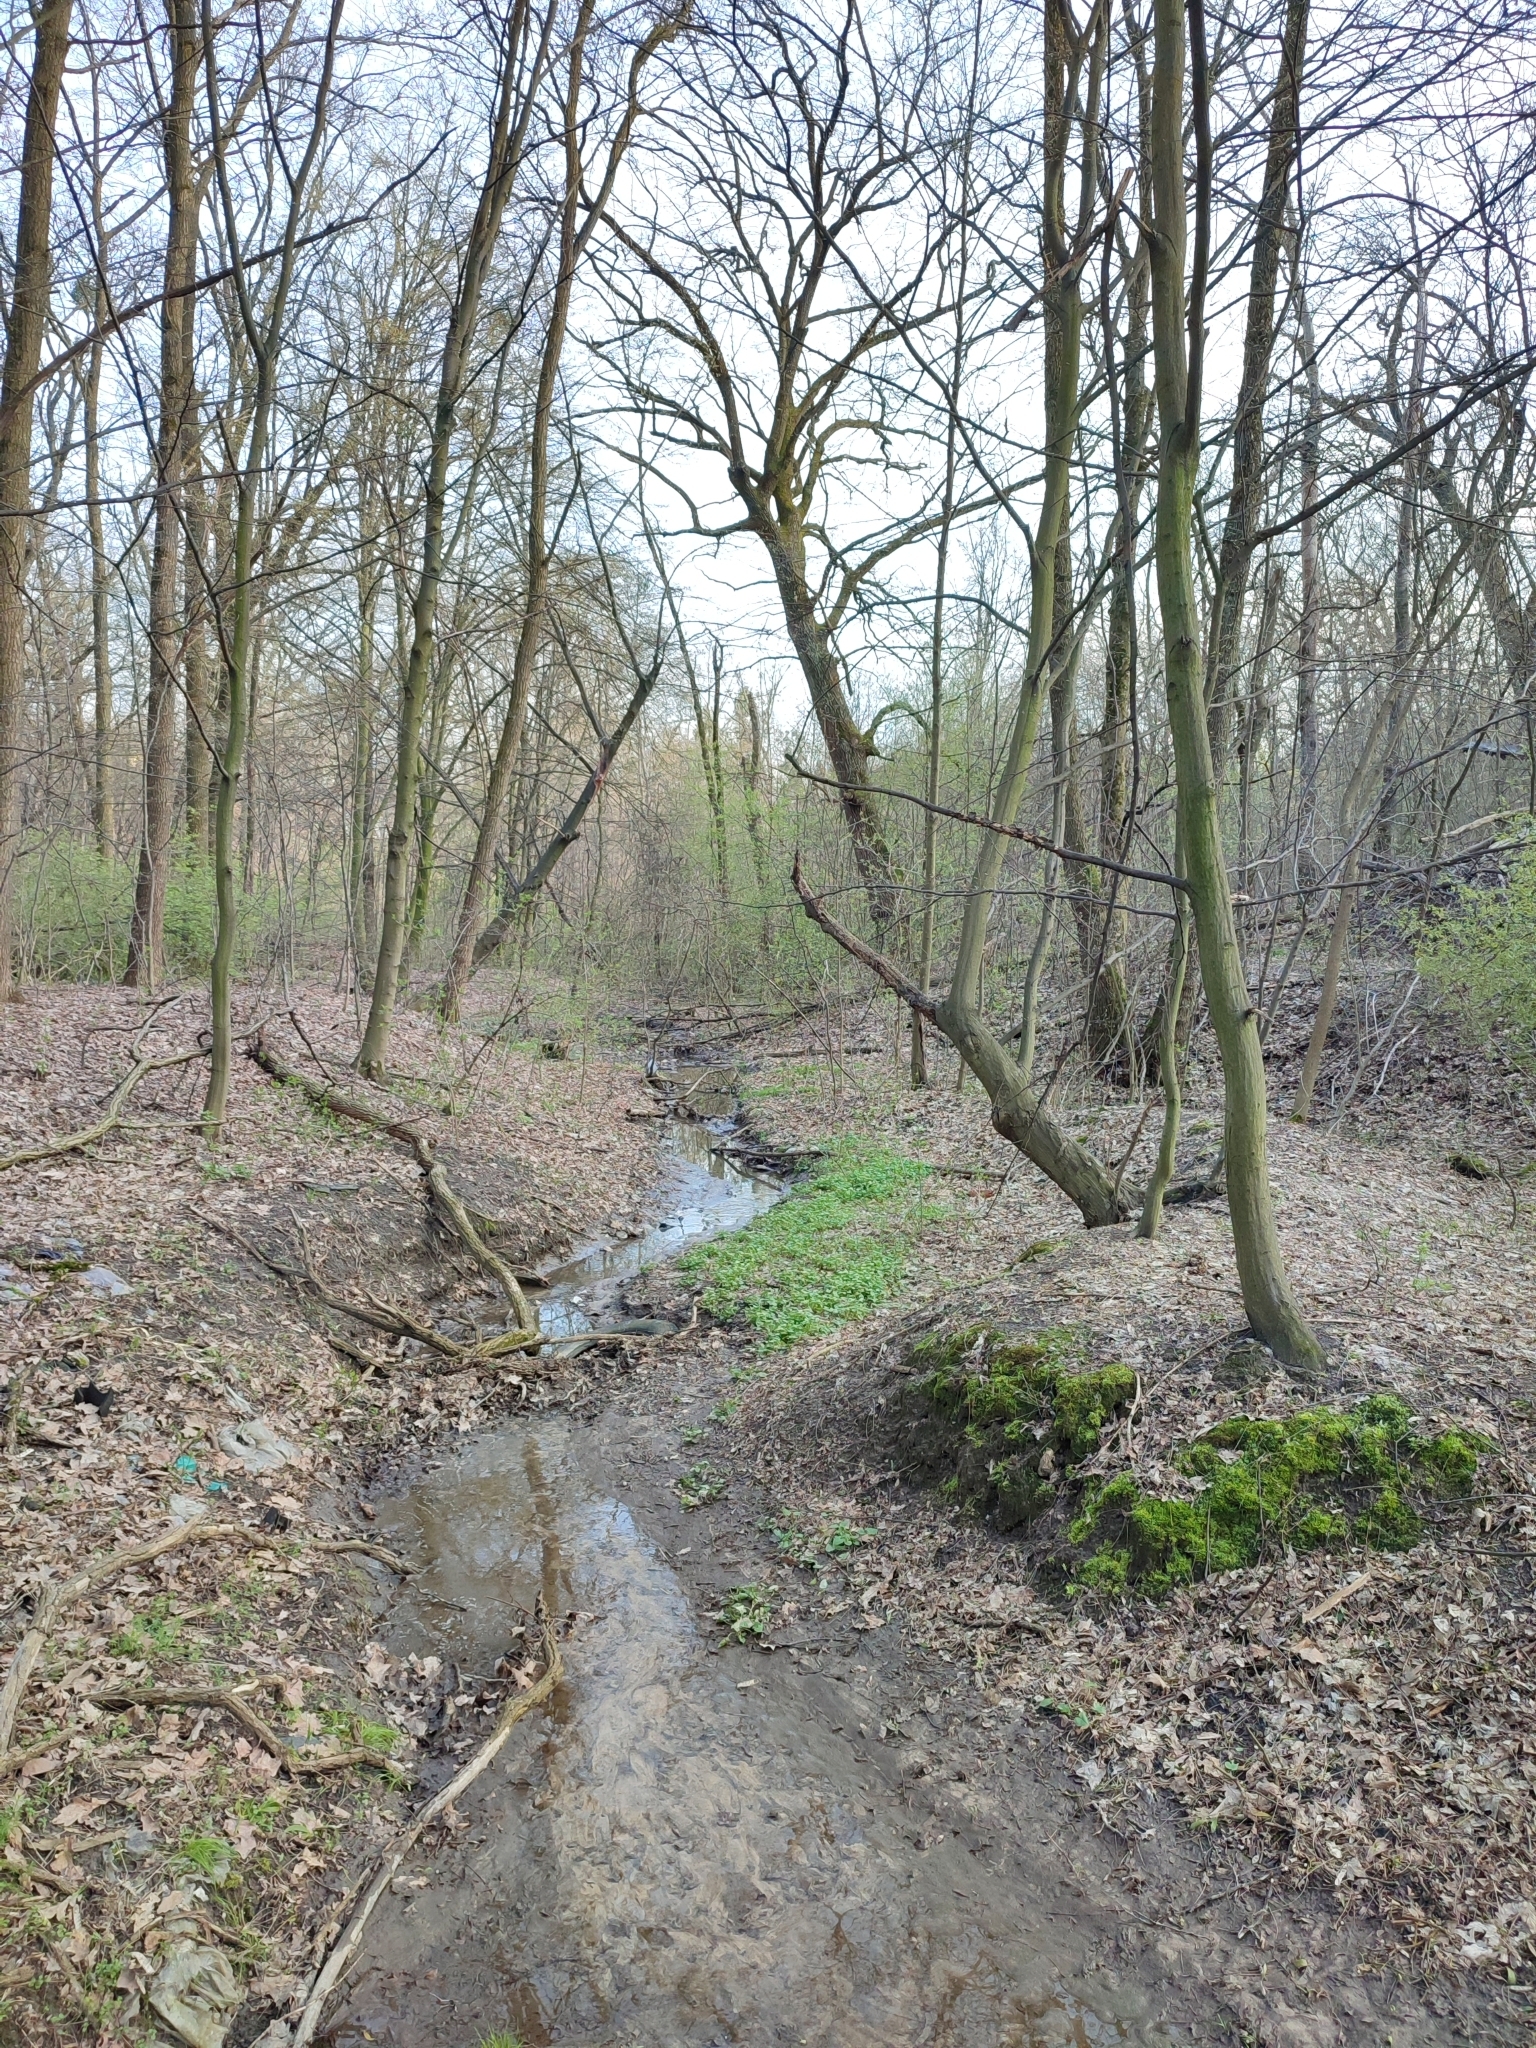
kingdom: Plantae
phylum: Tracheophyta
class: Magnoliopsida
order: Fagales
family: Betulaceae
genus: Carpinus
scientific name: Carpinus betulus
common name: Hornbeam
